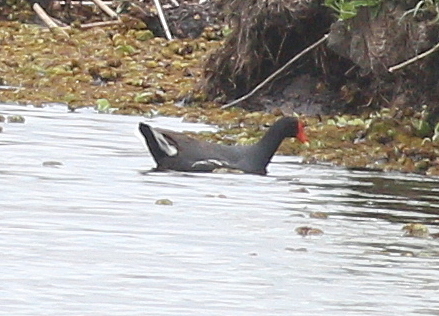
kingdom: Animalia
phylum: Chordata
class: Aves
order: Gruiformes
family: Rallidae
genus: Gallinula
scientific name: Gallinula chloropus
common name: Common moorhen
